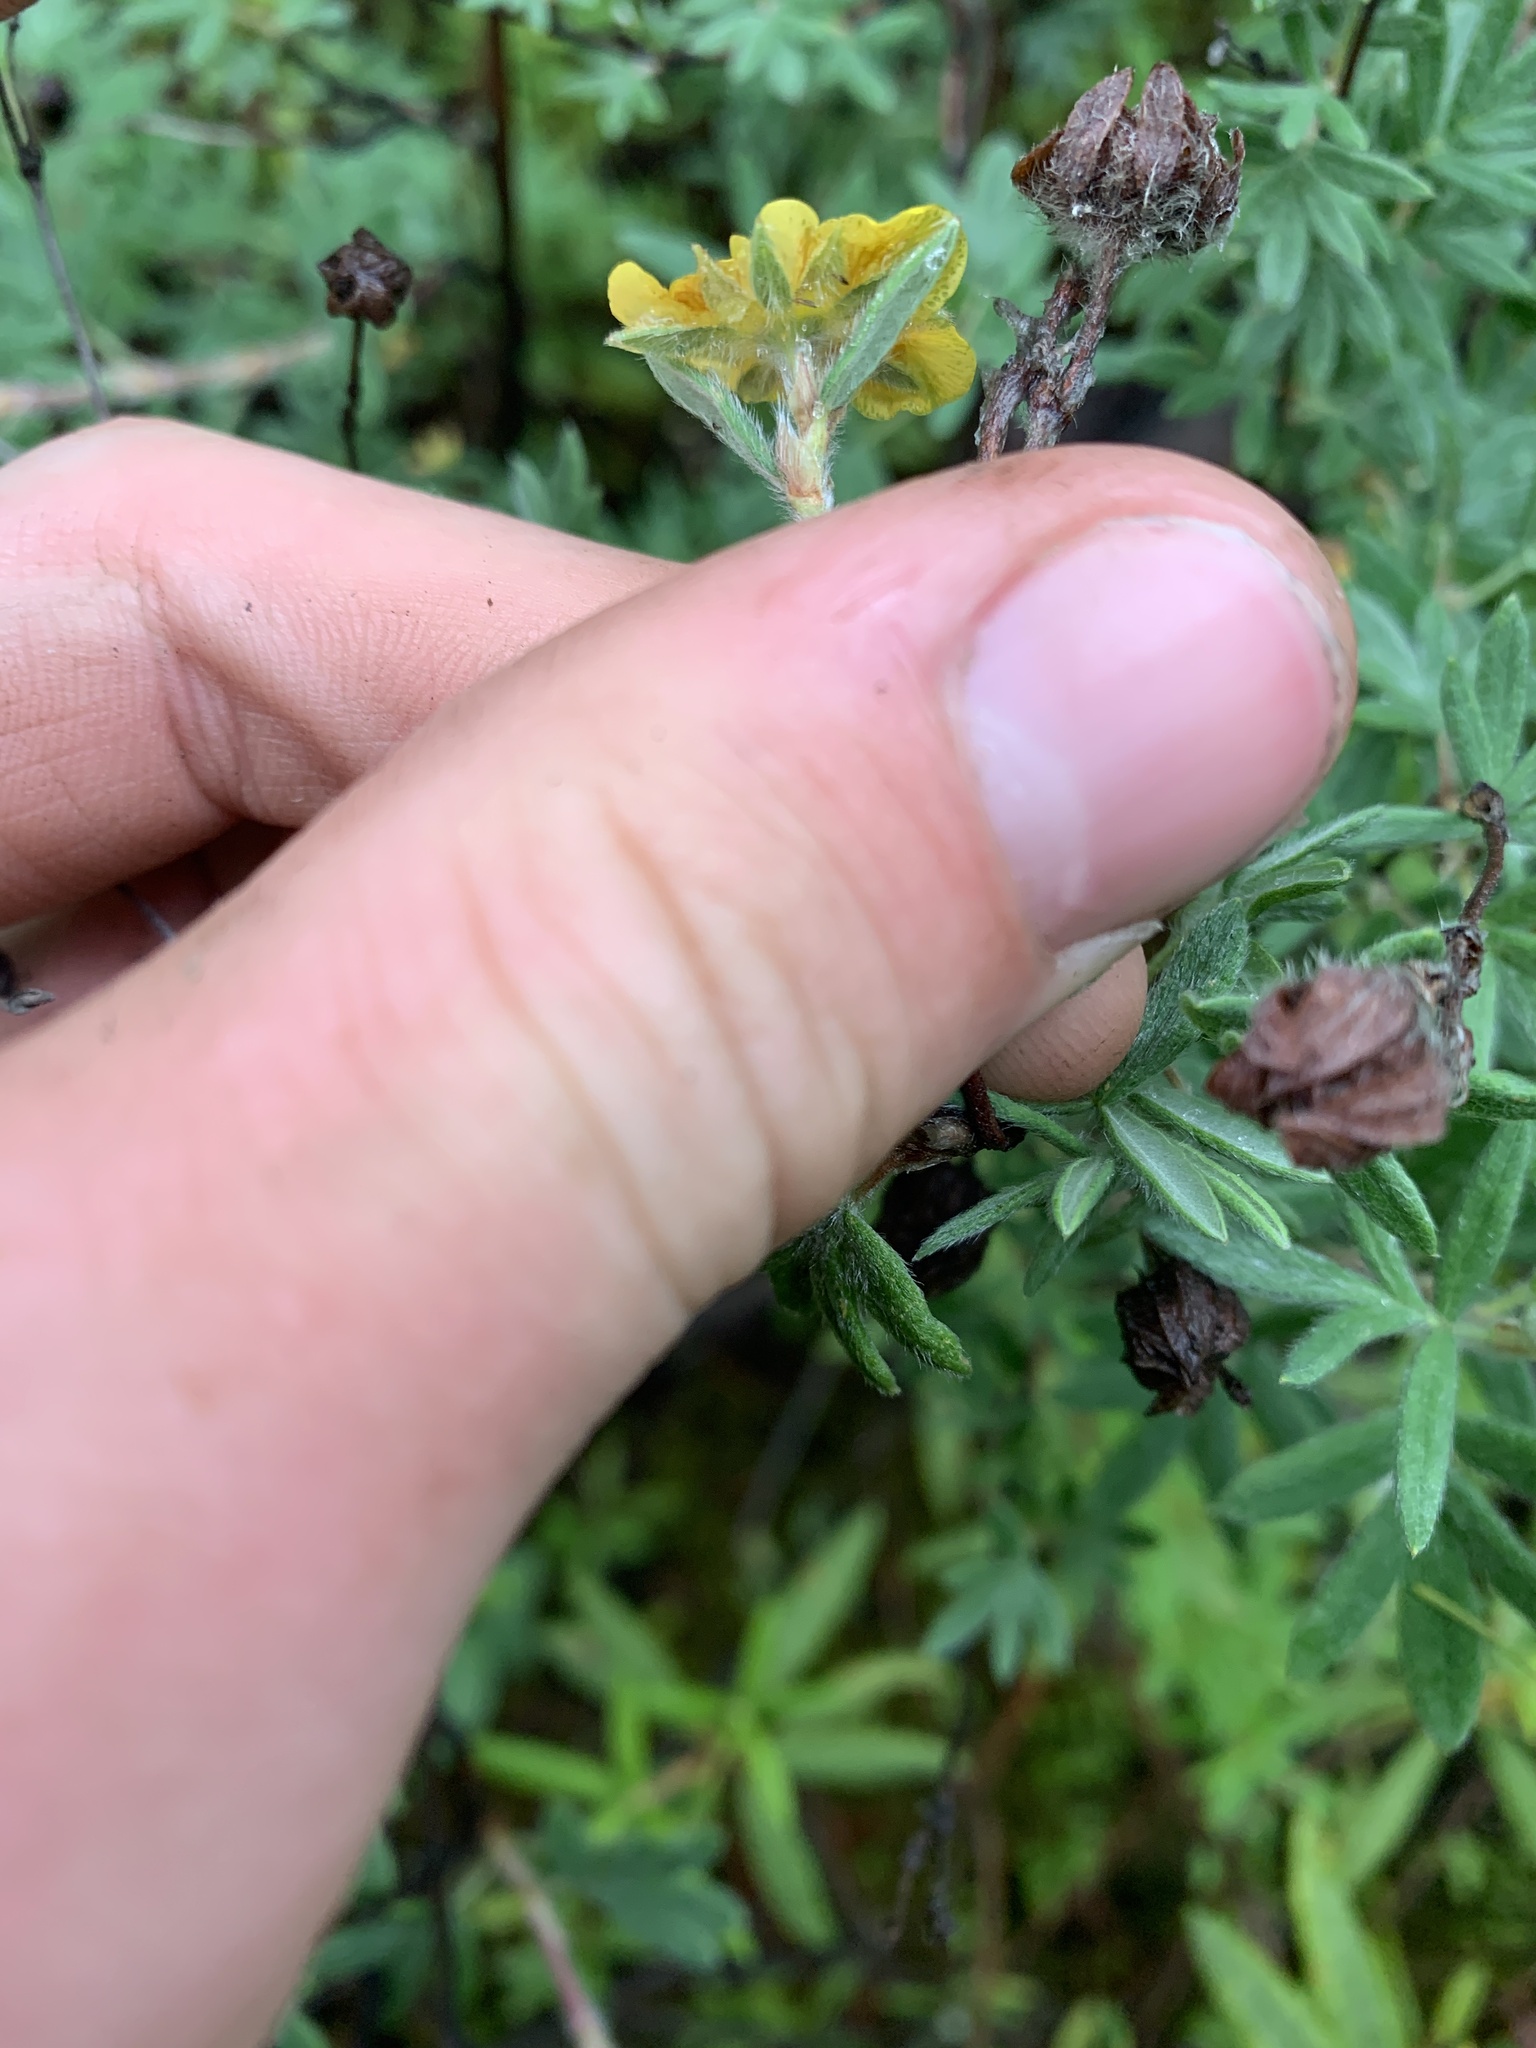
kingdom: Plantae
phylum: Tracheophyta
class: Magnoliopsida
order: Rosales
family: Rosaceae
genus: Dasiphora
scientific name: Dasiphora fruticosa
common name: Shrubby cinquefoil
